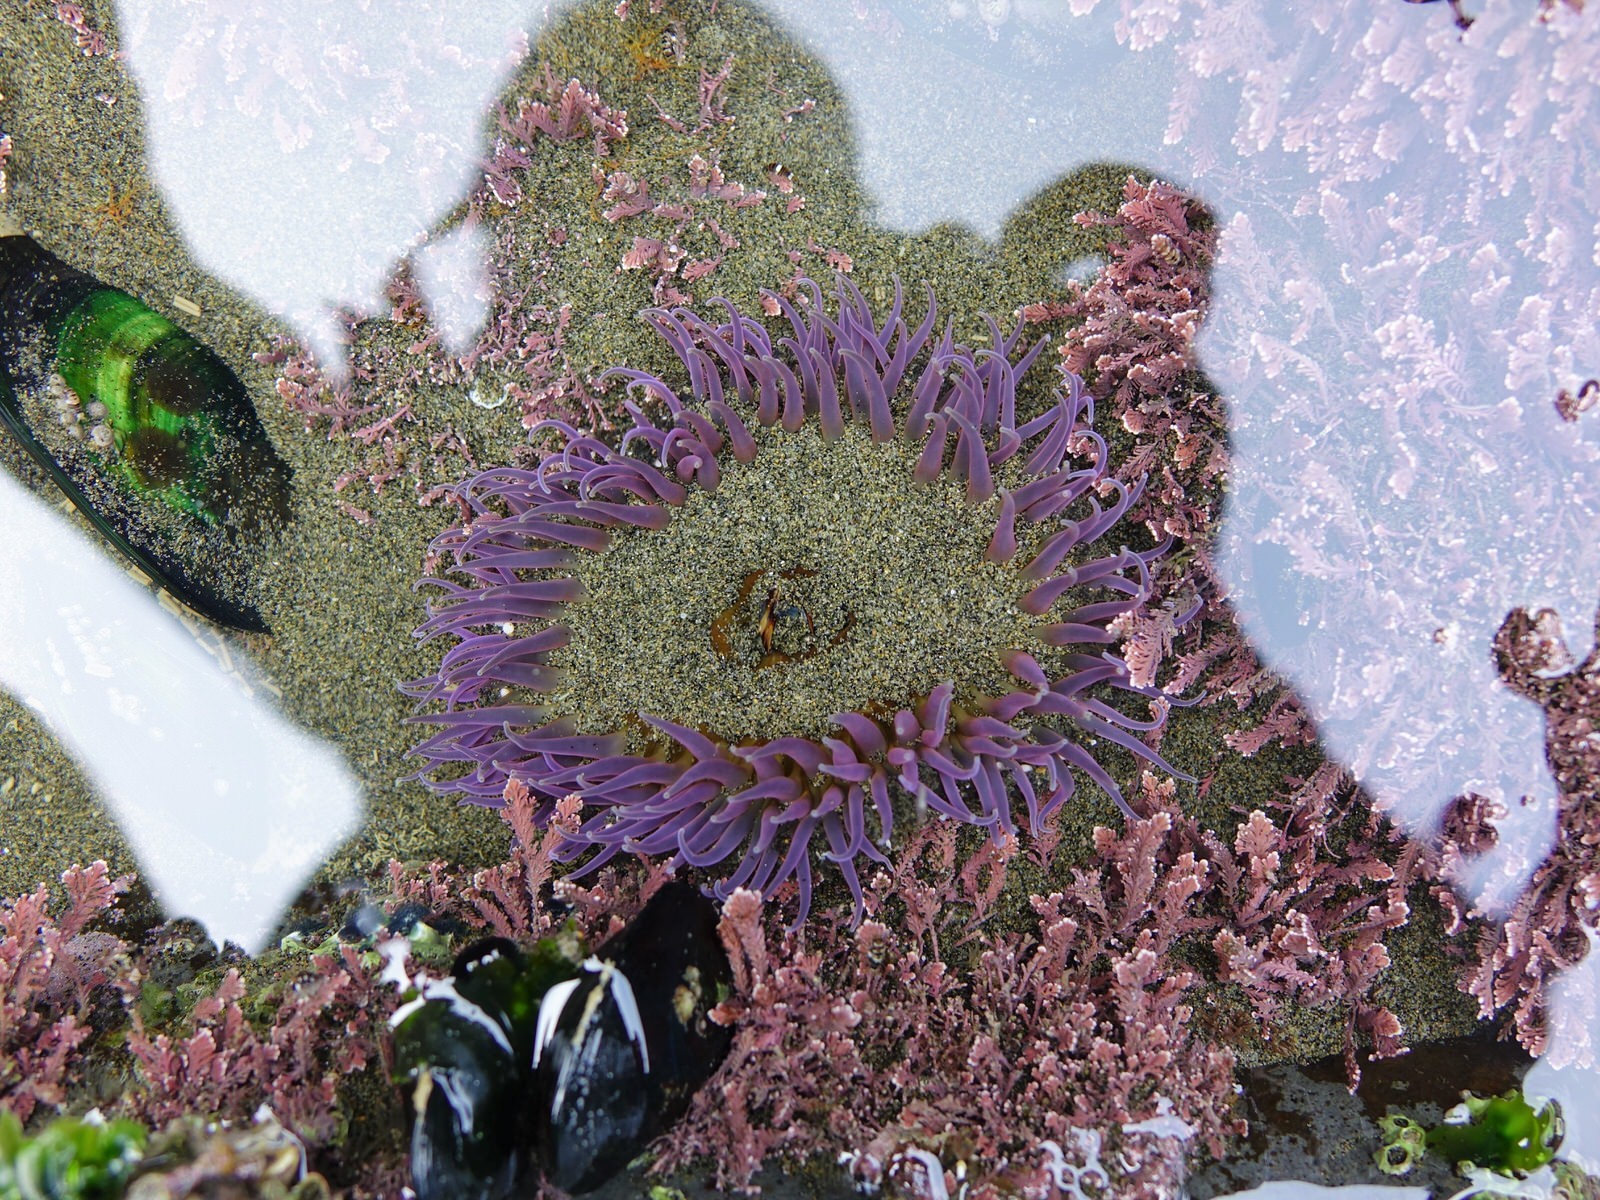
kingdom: Animalia
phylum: Cnidaria
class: Anthozoa
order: Actiniaria
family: Actiniidae
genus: Oulactis
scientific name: Oulactis magna
